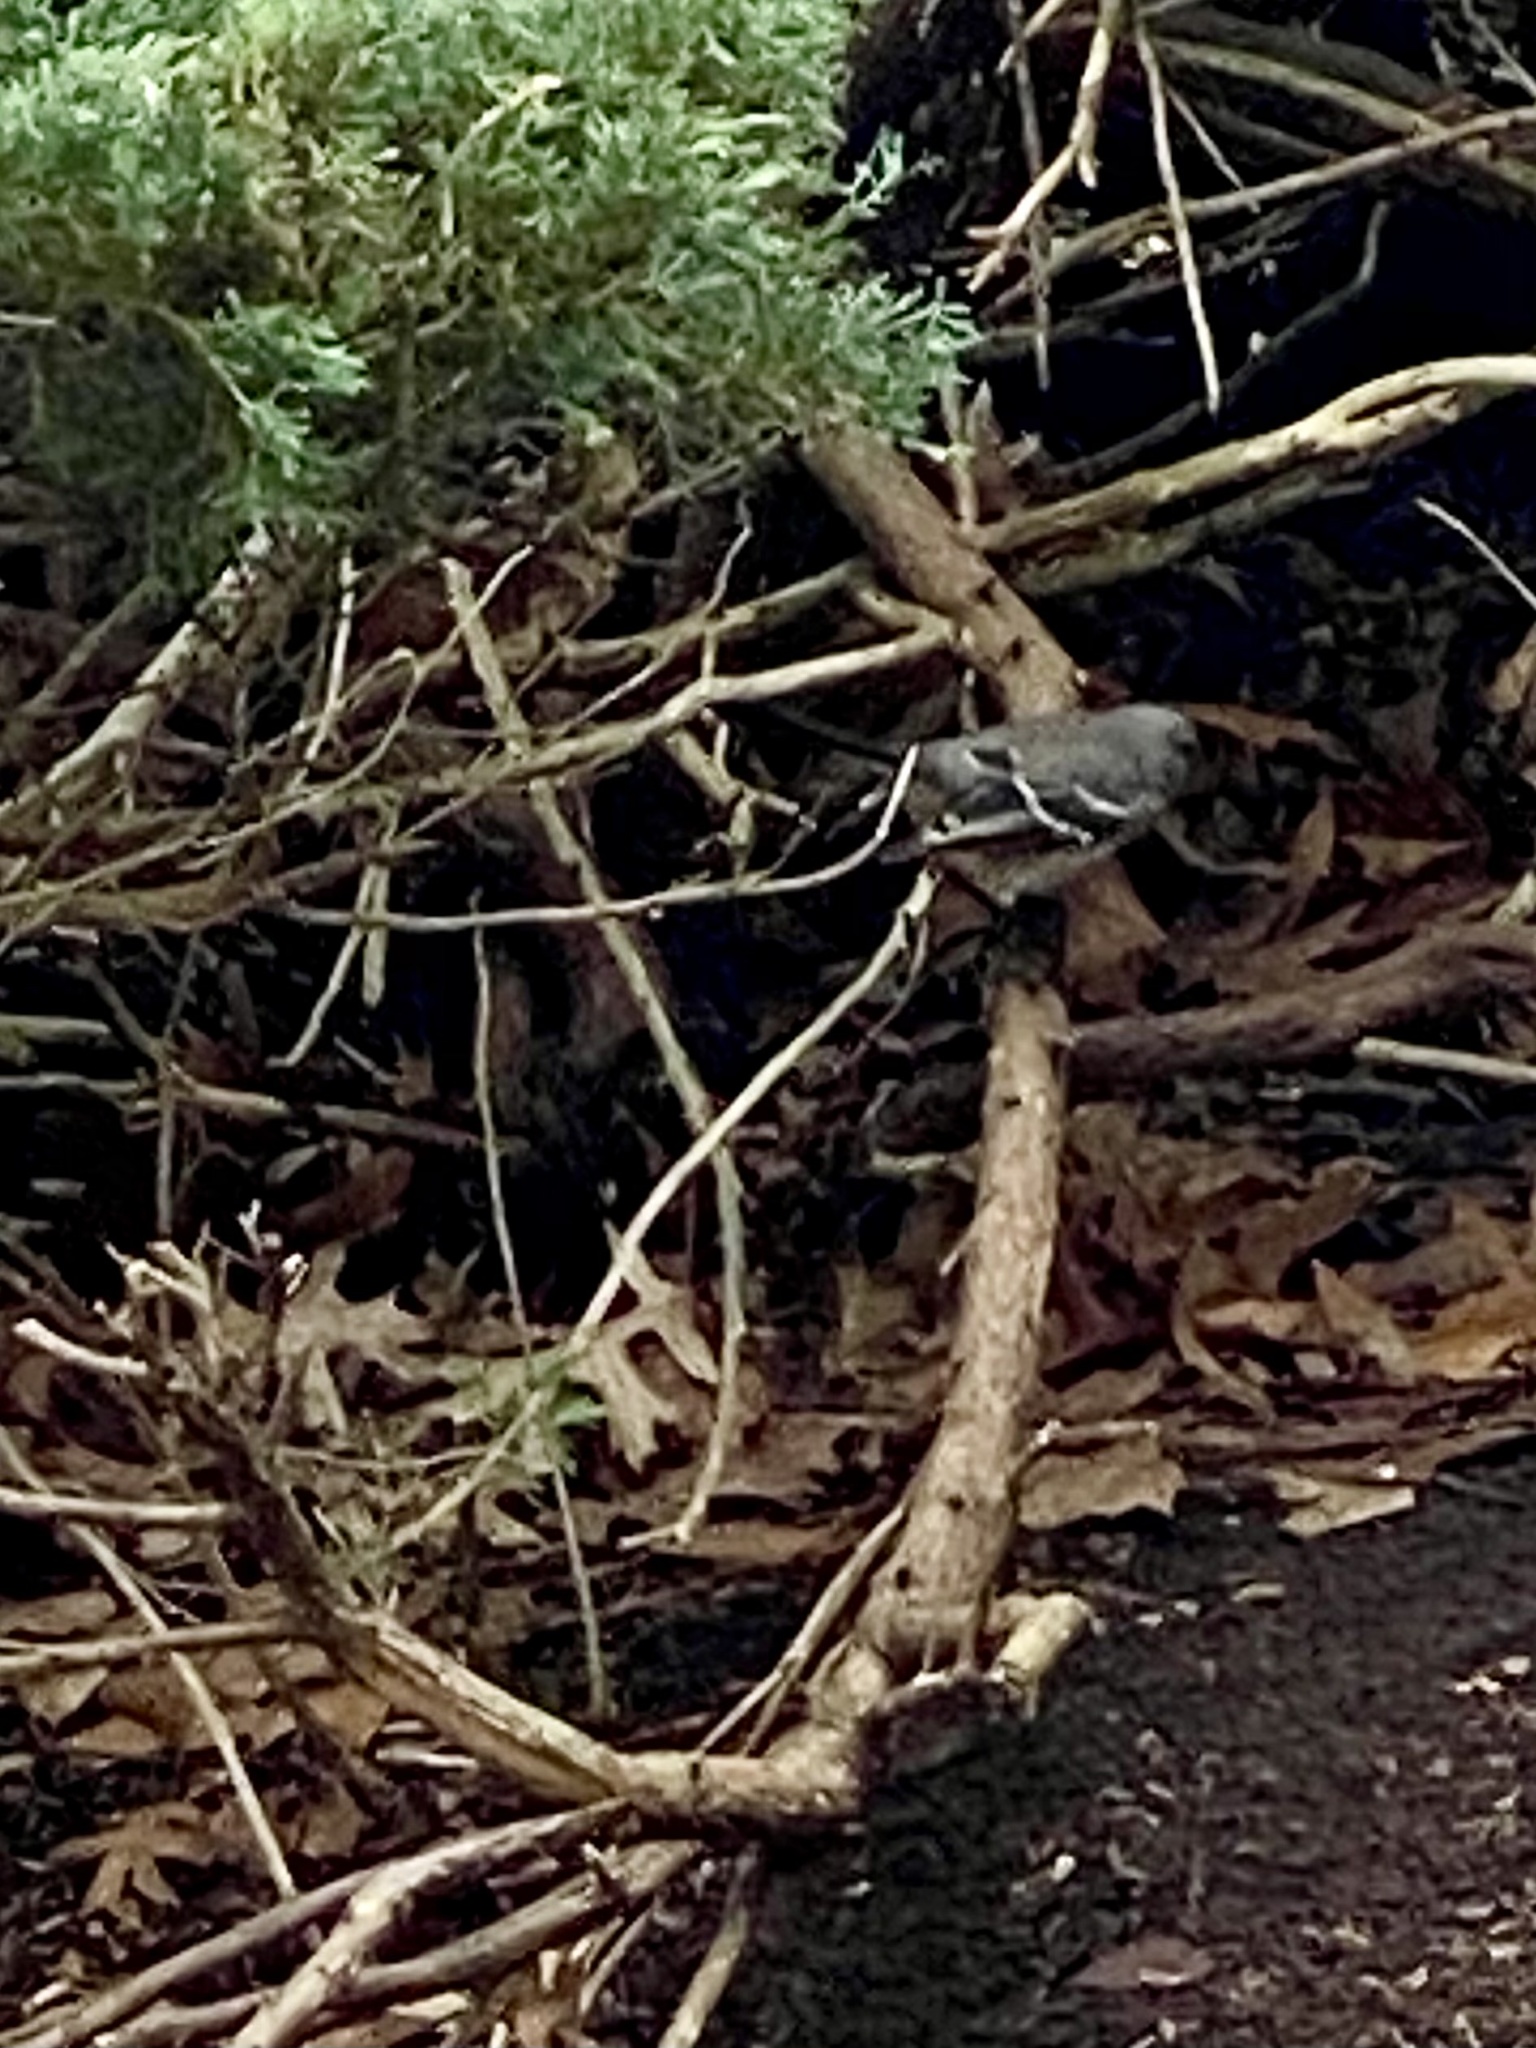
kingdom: Animalia
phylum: Chordata
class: Aves
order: Passeriformes
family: Mimidae
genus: Mimus
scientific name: Mimus polyglottos
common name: Northern mockingbird
